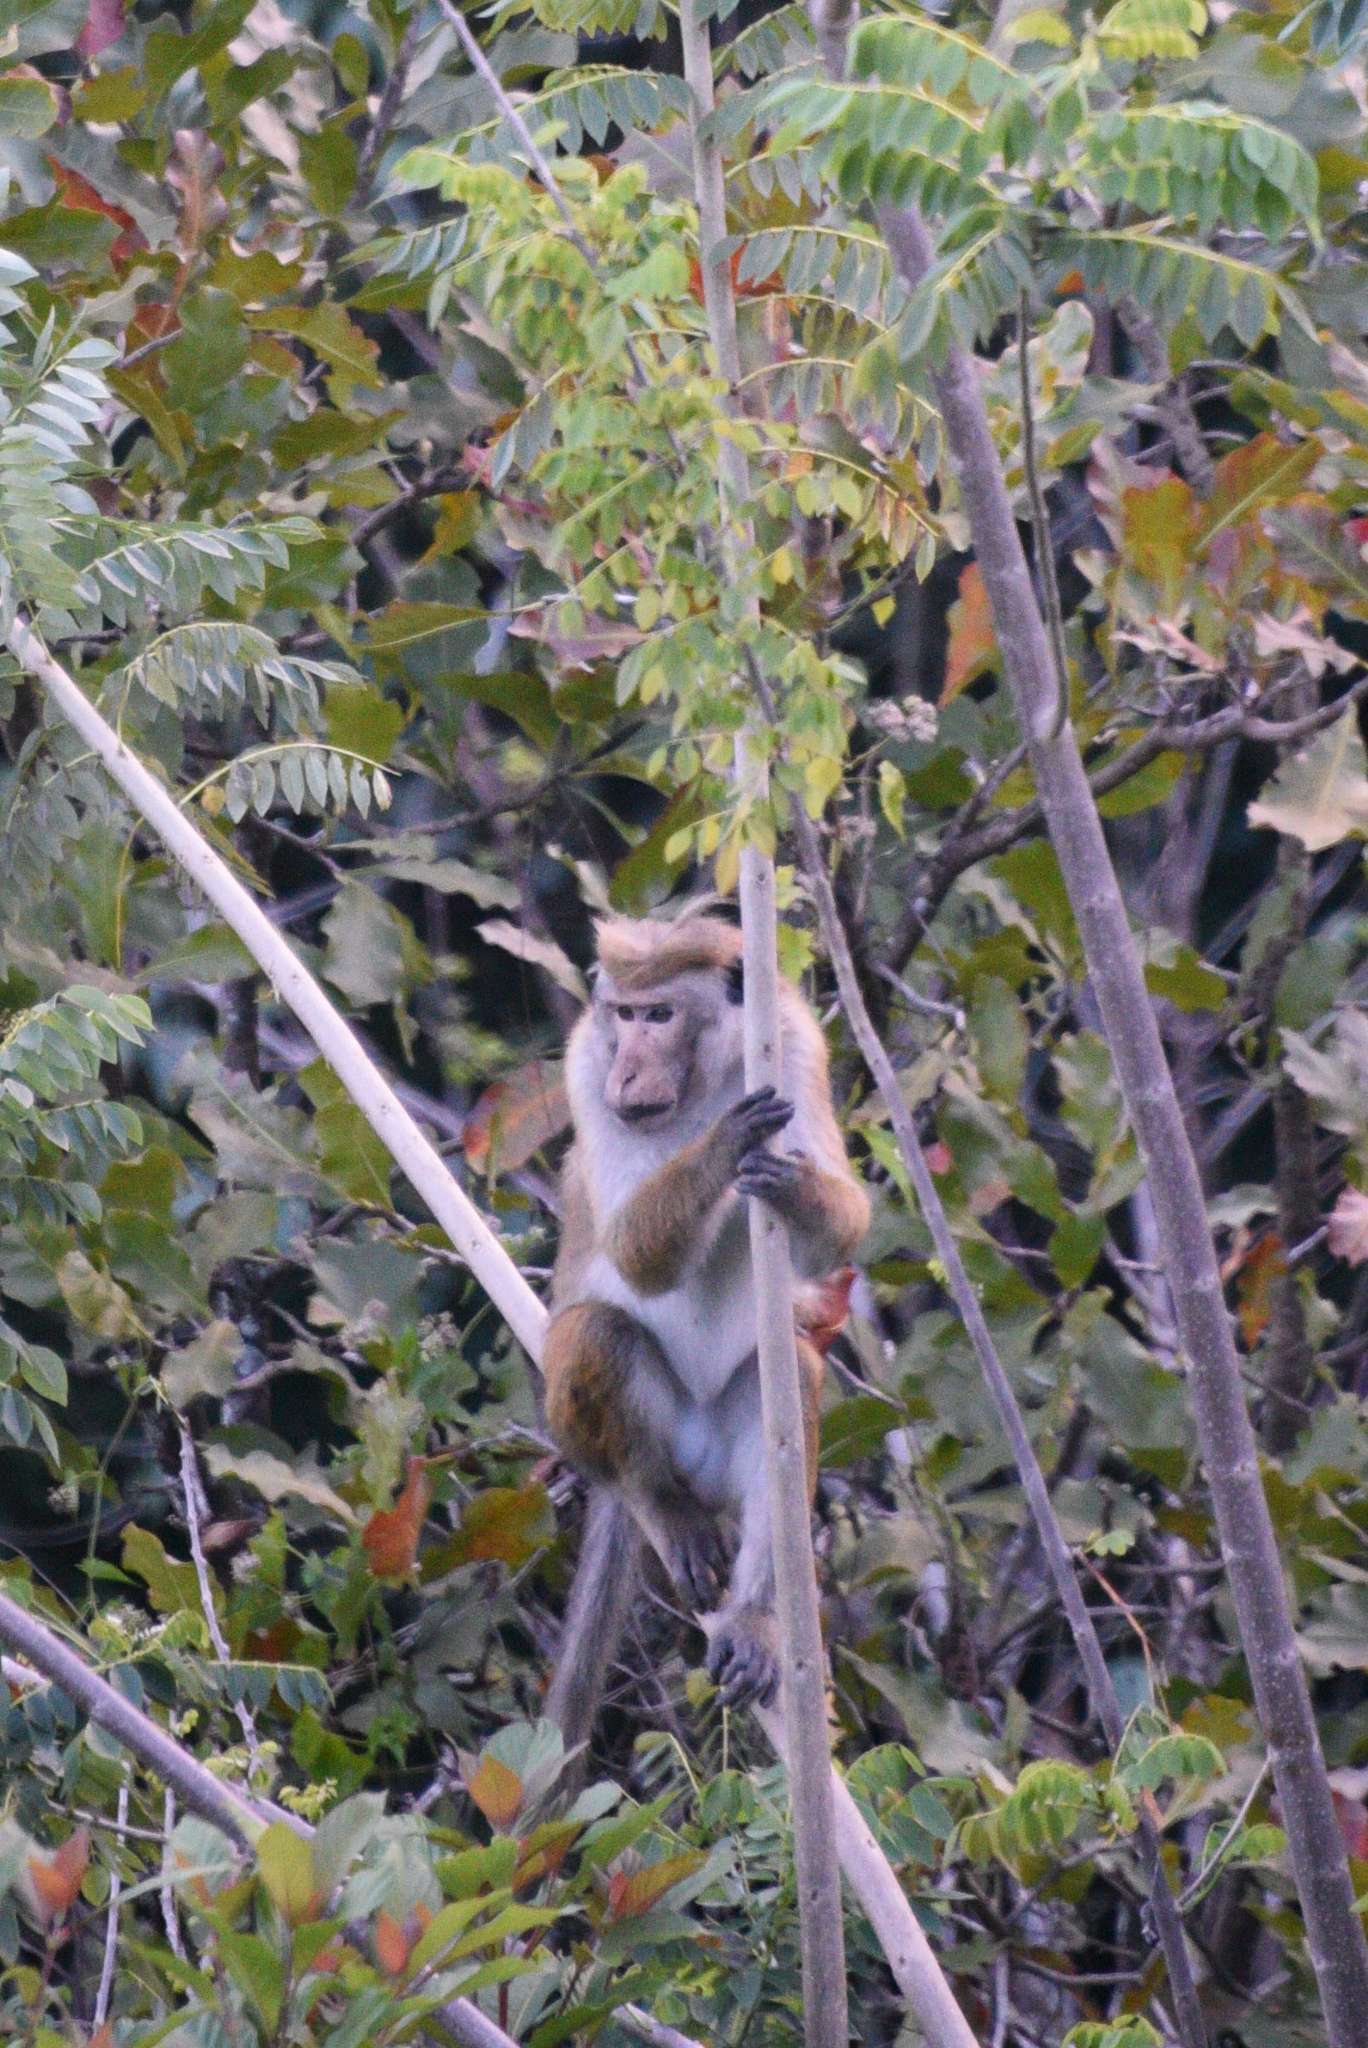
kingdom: Animalia
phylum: Chordata
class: Mammalia
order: Primates
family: Cercopithecidae
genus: Macaca
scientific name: Macaca sinica
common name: Toque macaque
